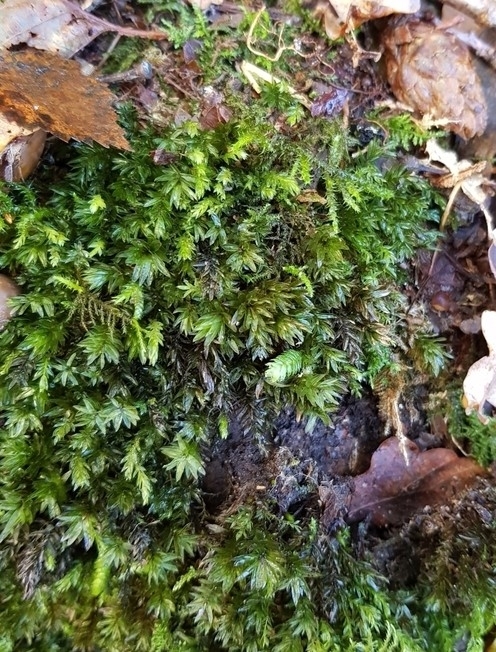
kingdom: Plantae
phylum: Bryophyta
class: Bryopsida
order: Bryales
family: Mniaceae
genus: Mnium
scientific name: Mnium hornum
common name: Swan's-neck leafy moss
